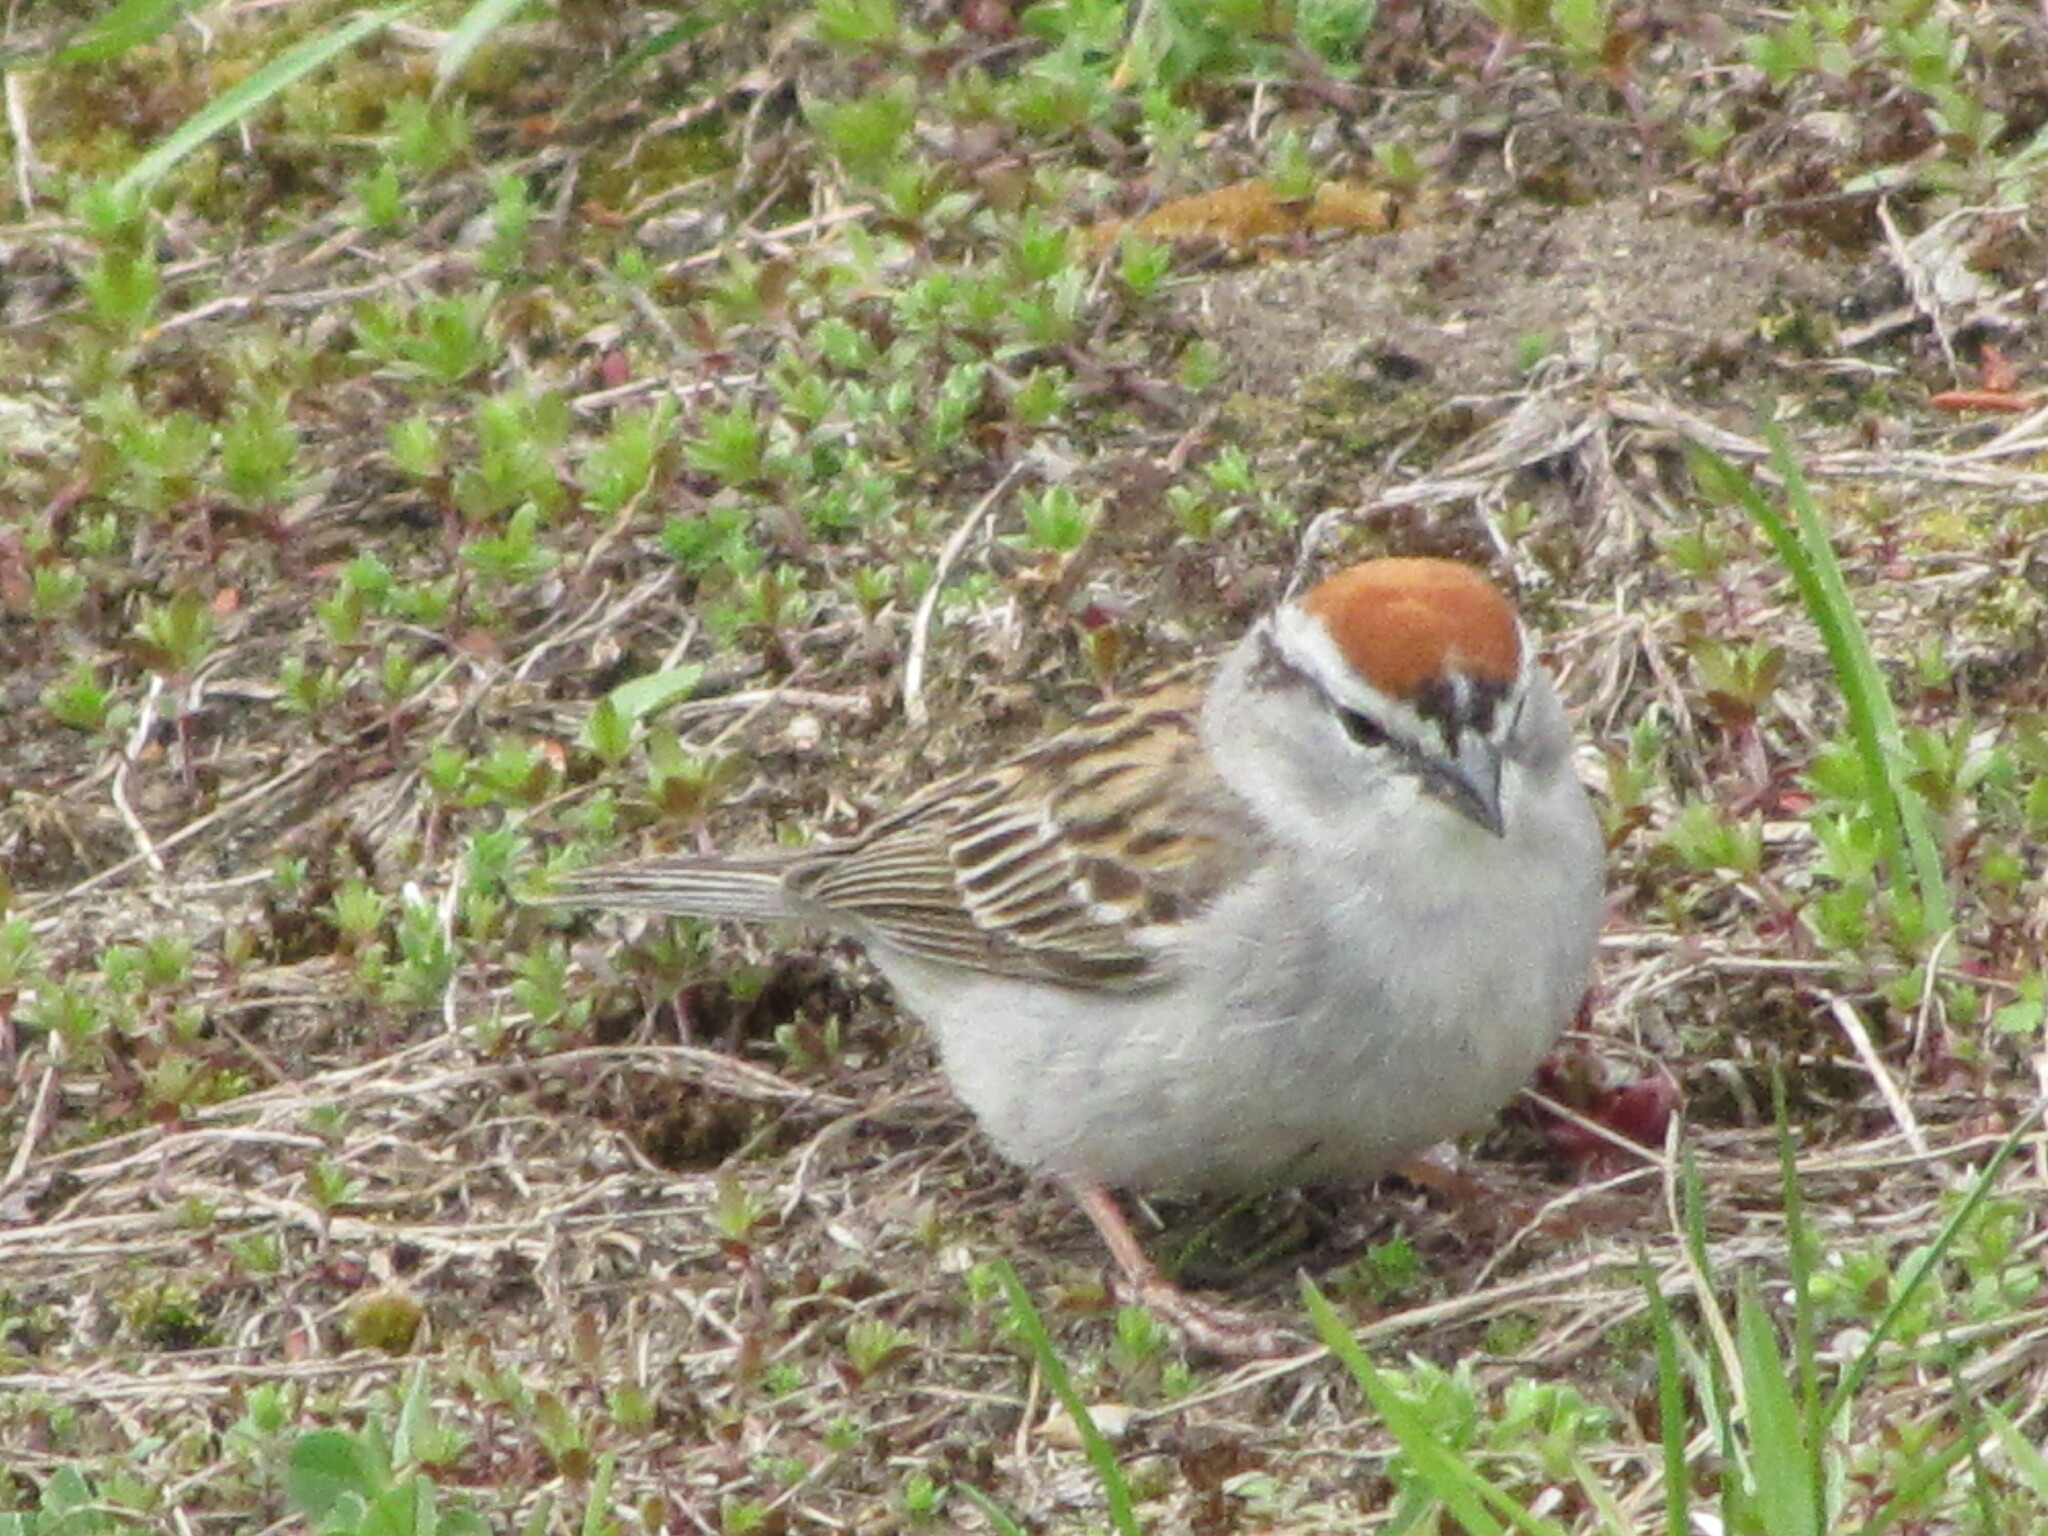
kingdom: Animalia
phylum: Chordata
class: Aves
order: Passeriformes
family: Passerellidae
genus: Spizella
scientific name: Spizella passerina
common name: Chipping sparrow
